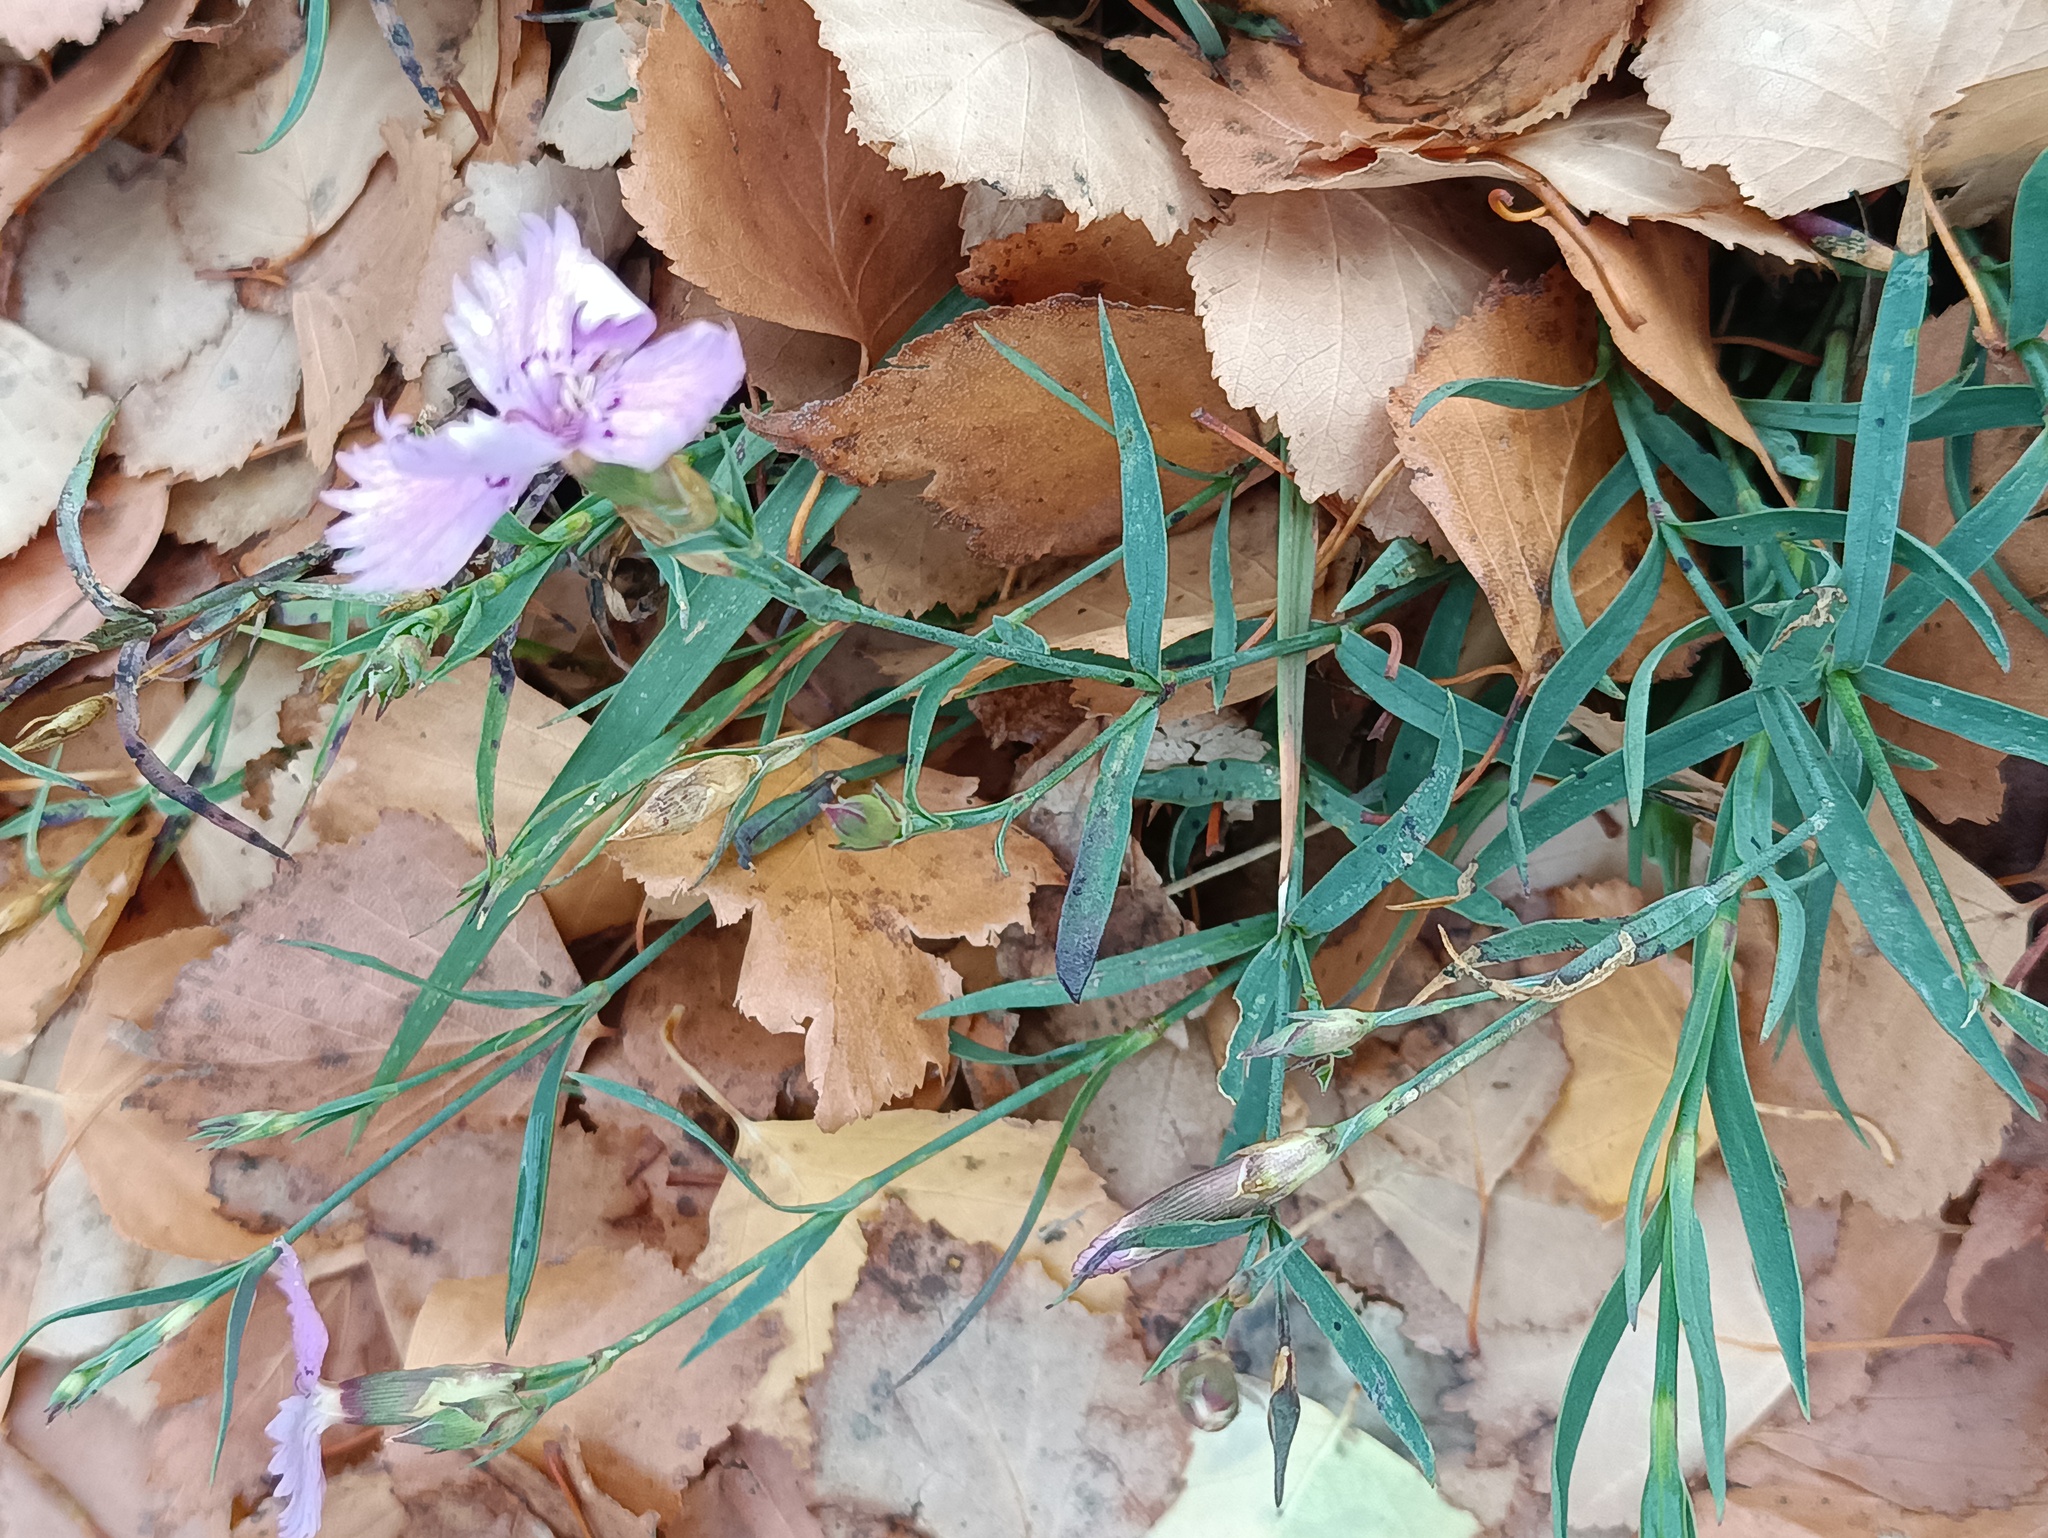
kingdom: Plantae
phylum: Tracheophyta
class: Magnoliopsida
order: Caryophyllales
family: Caryophyllaceae
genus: Dianthus
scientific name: Dianthus chinensis
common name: Rainbow pink
